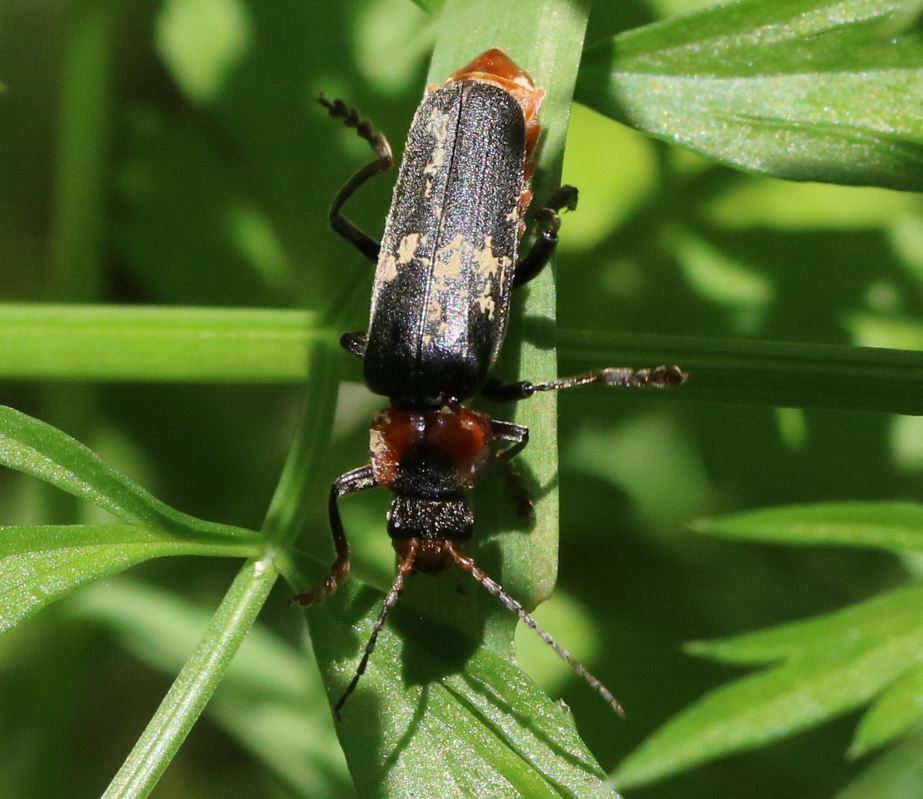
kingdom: Animalia
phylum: Arthropoda
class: Insecta
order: Coleoptera
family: Cantharidae
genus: Cantharis
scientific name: Cantharis fusca
